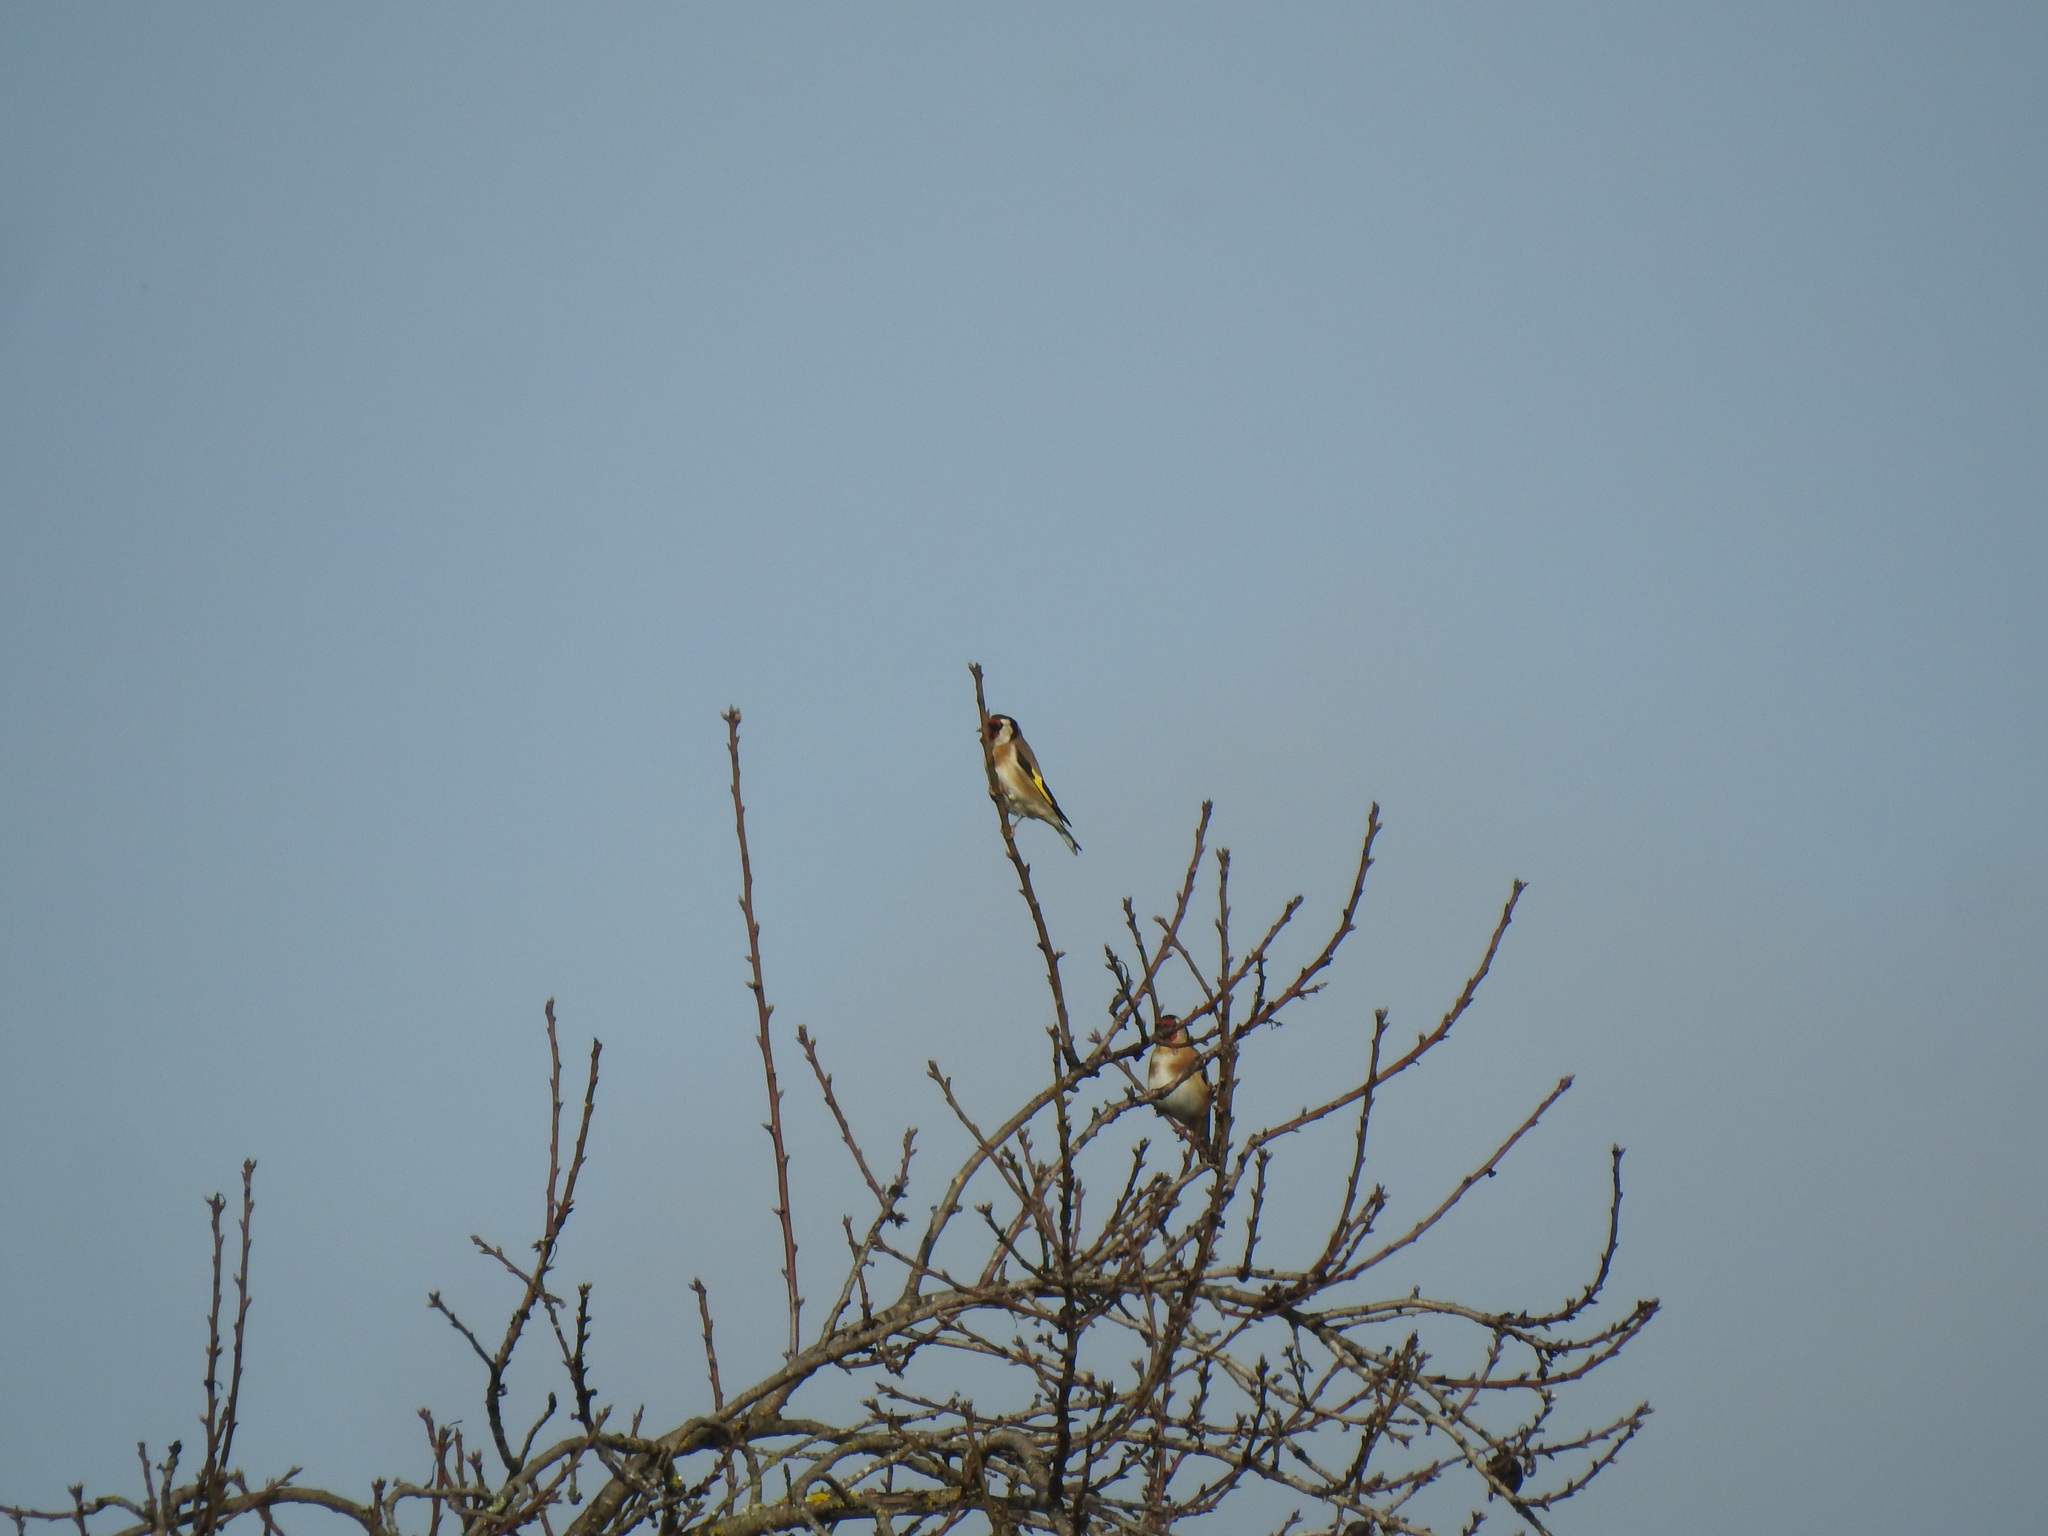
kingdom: Animalia
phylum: Chordata
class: Aves
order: Passeriformes
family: Fringillidae
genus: Carduelis
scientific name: Carduelis carduelis
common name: European goldfinch
